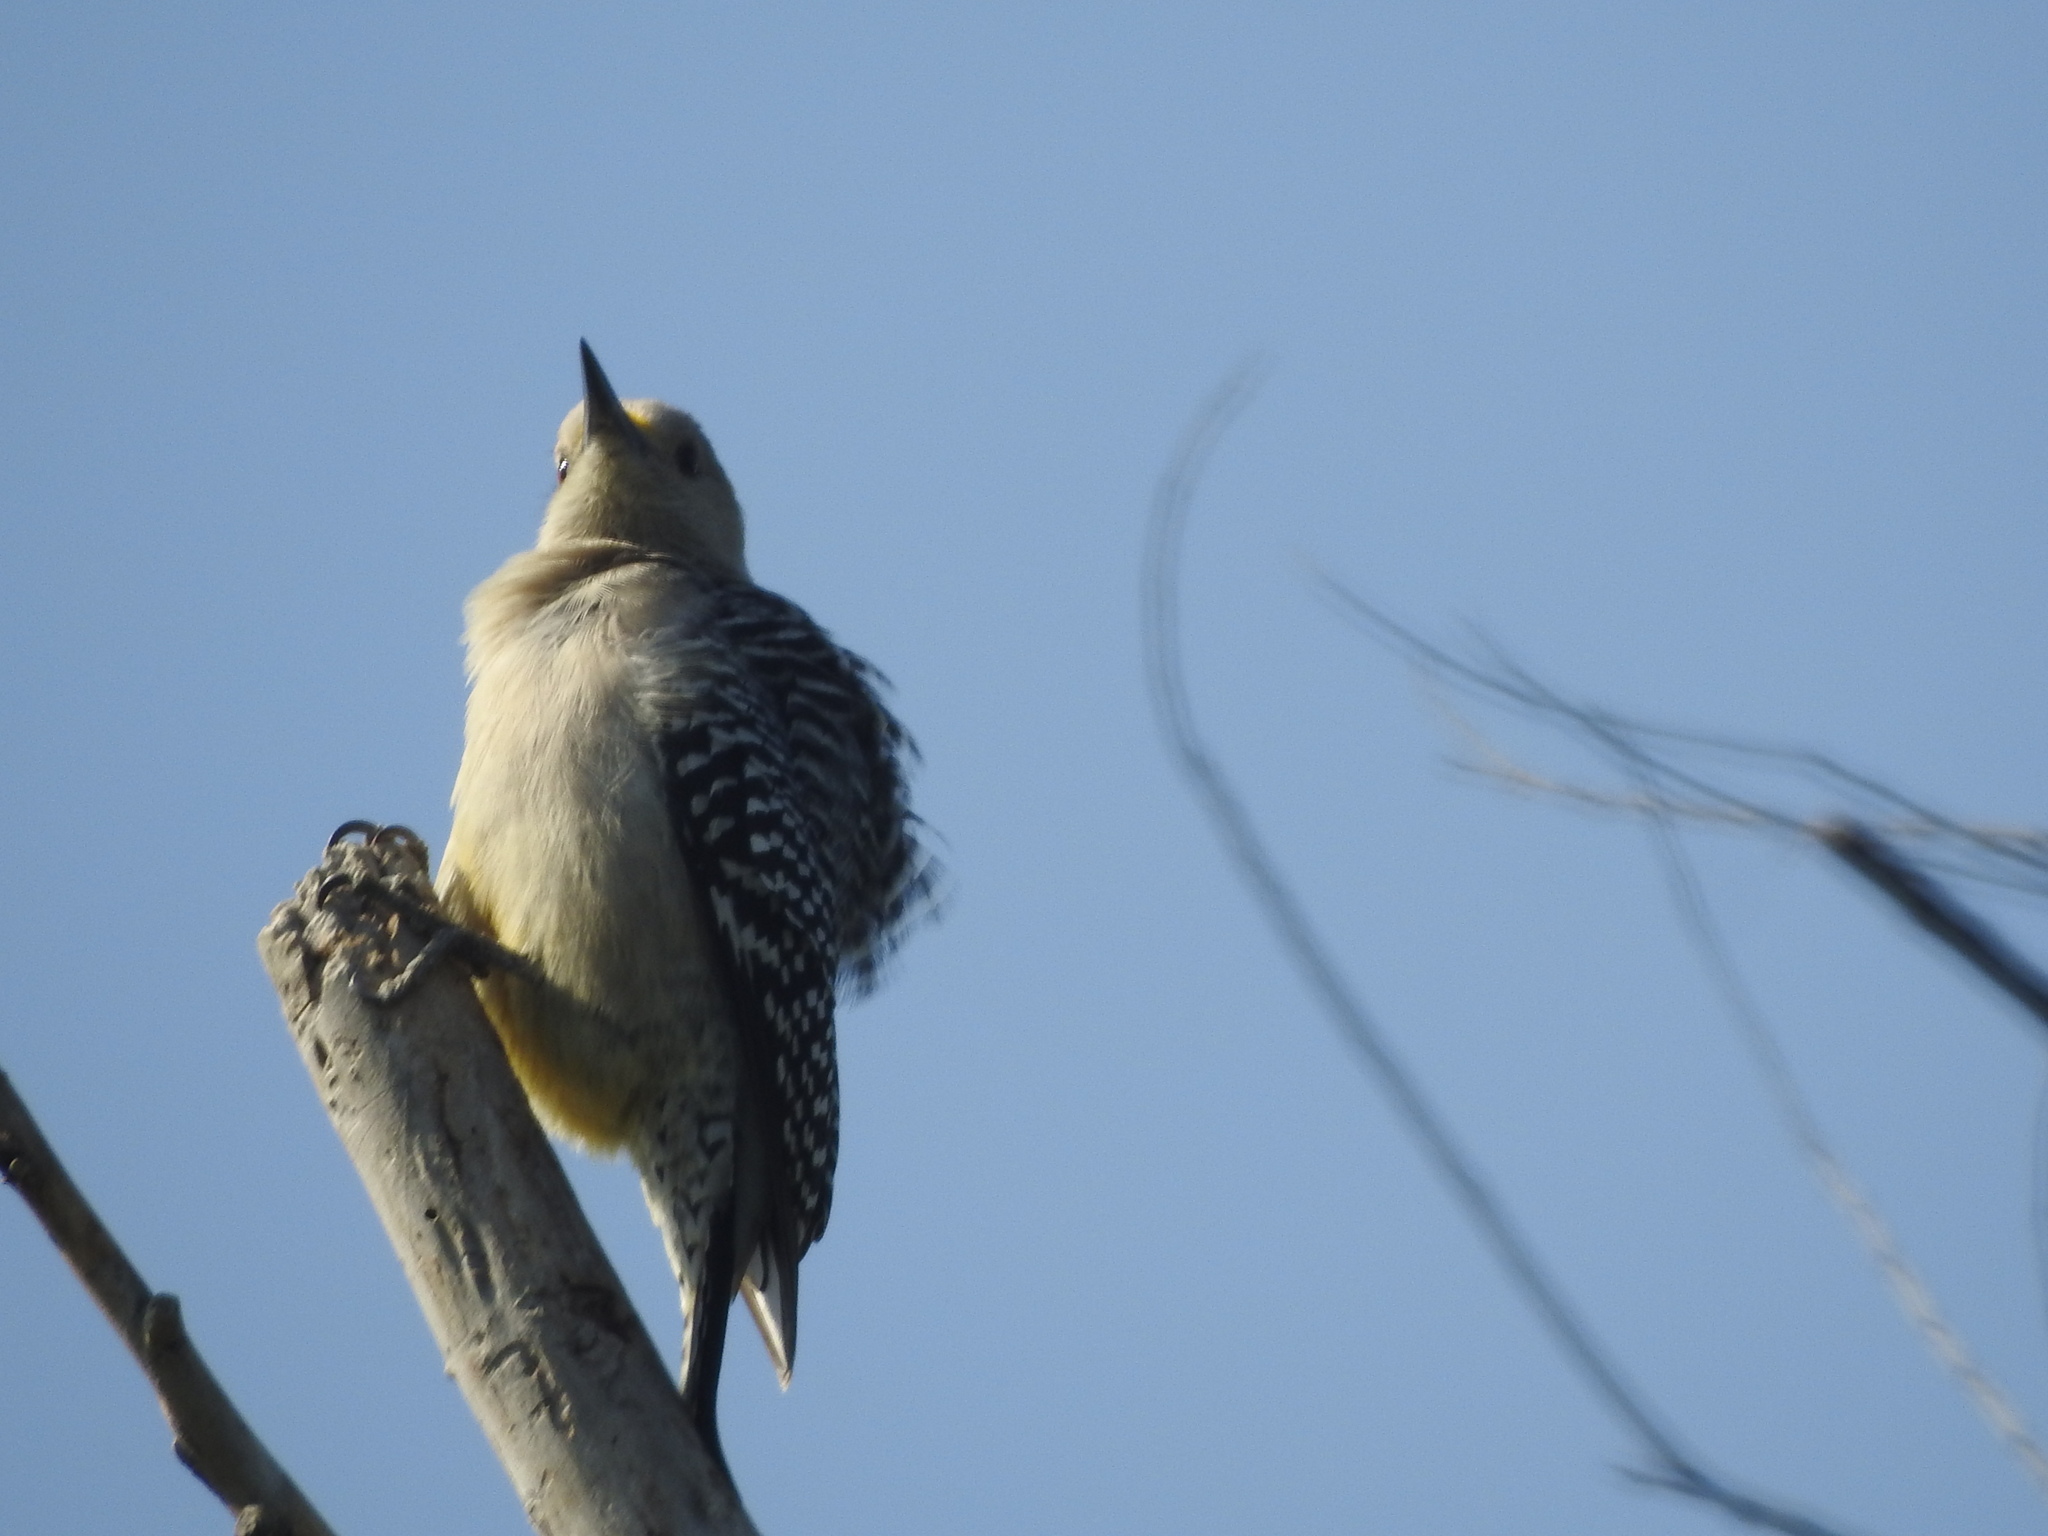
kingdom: Animalia
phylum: Chordata
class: Aves
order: Piciformes
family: Picidae
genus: Melanerpes
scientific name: Melanerpes aurifrons
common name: Golden-fronted woodpecker
